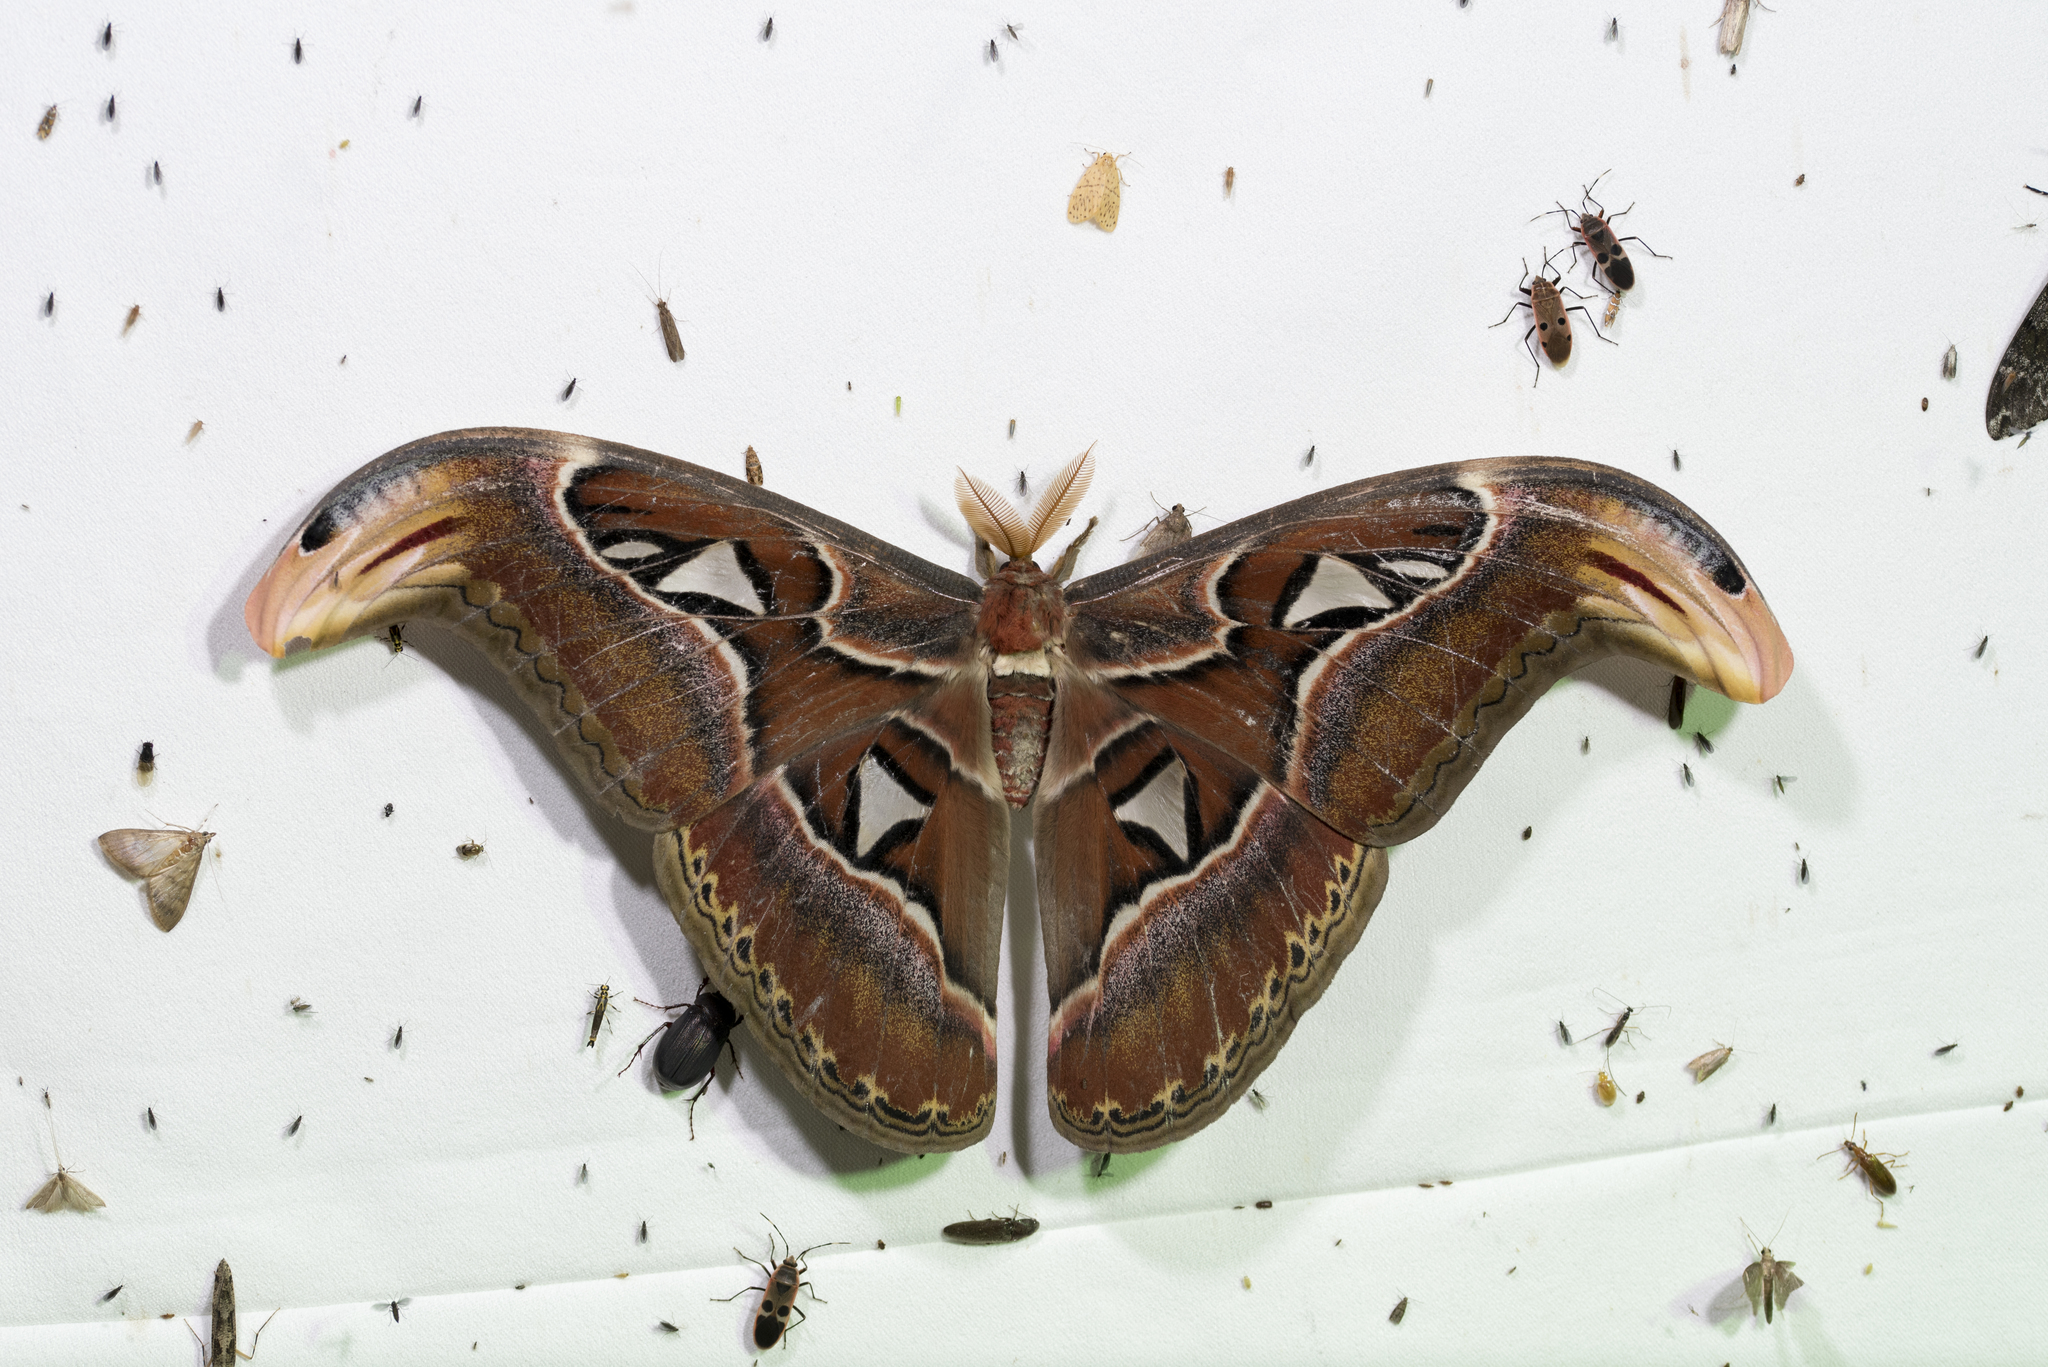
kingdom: Animalia
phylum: Arthropoda
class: Insecta
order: Lepidoptera
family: Saturniidae
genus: Attacus
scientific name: Attacus atlas
